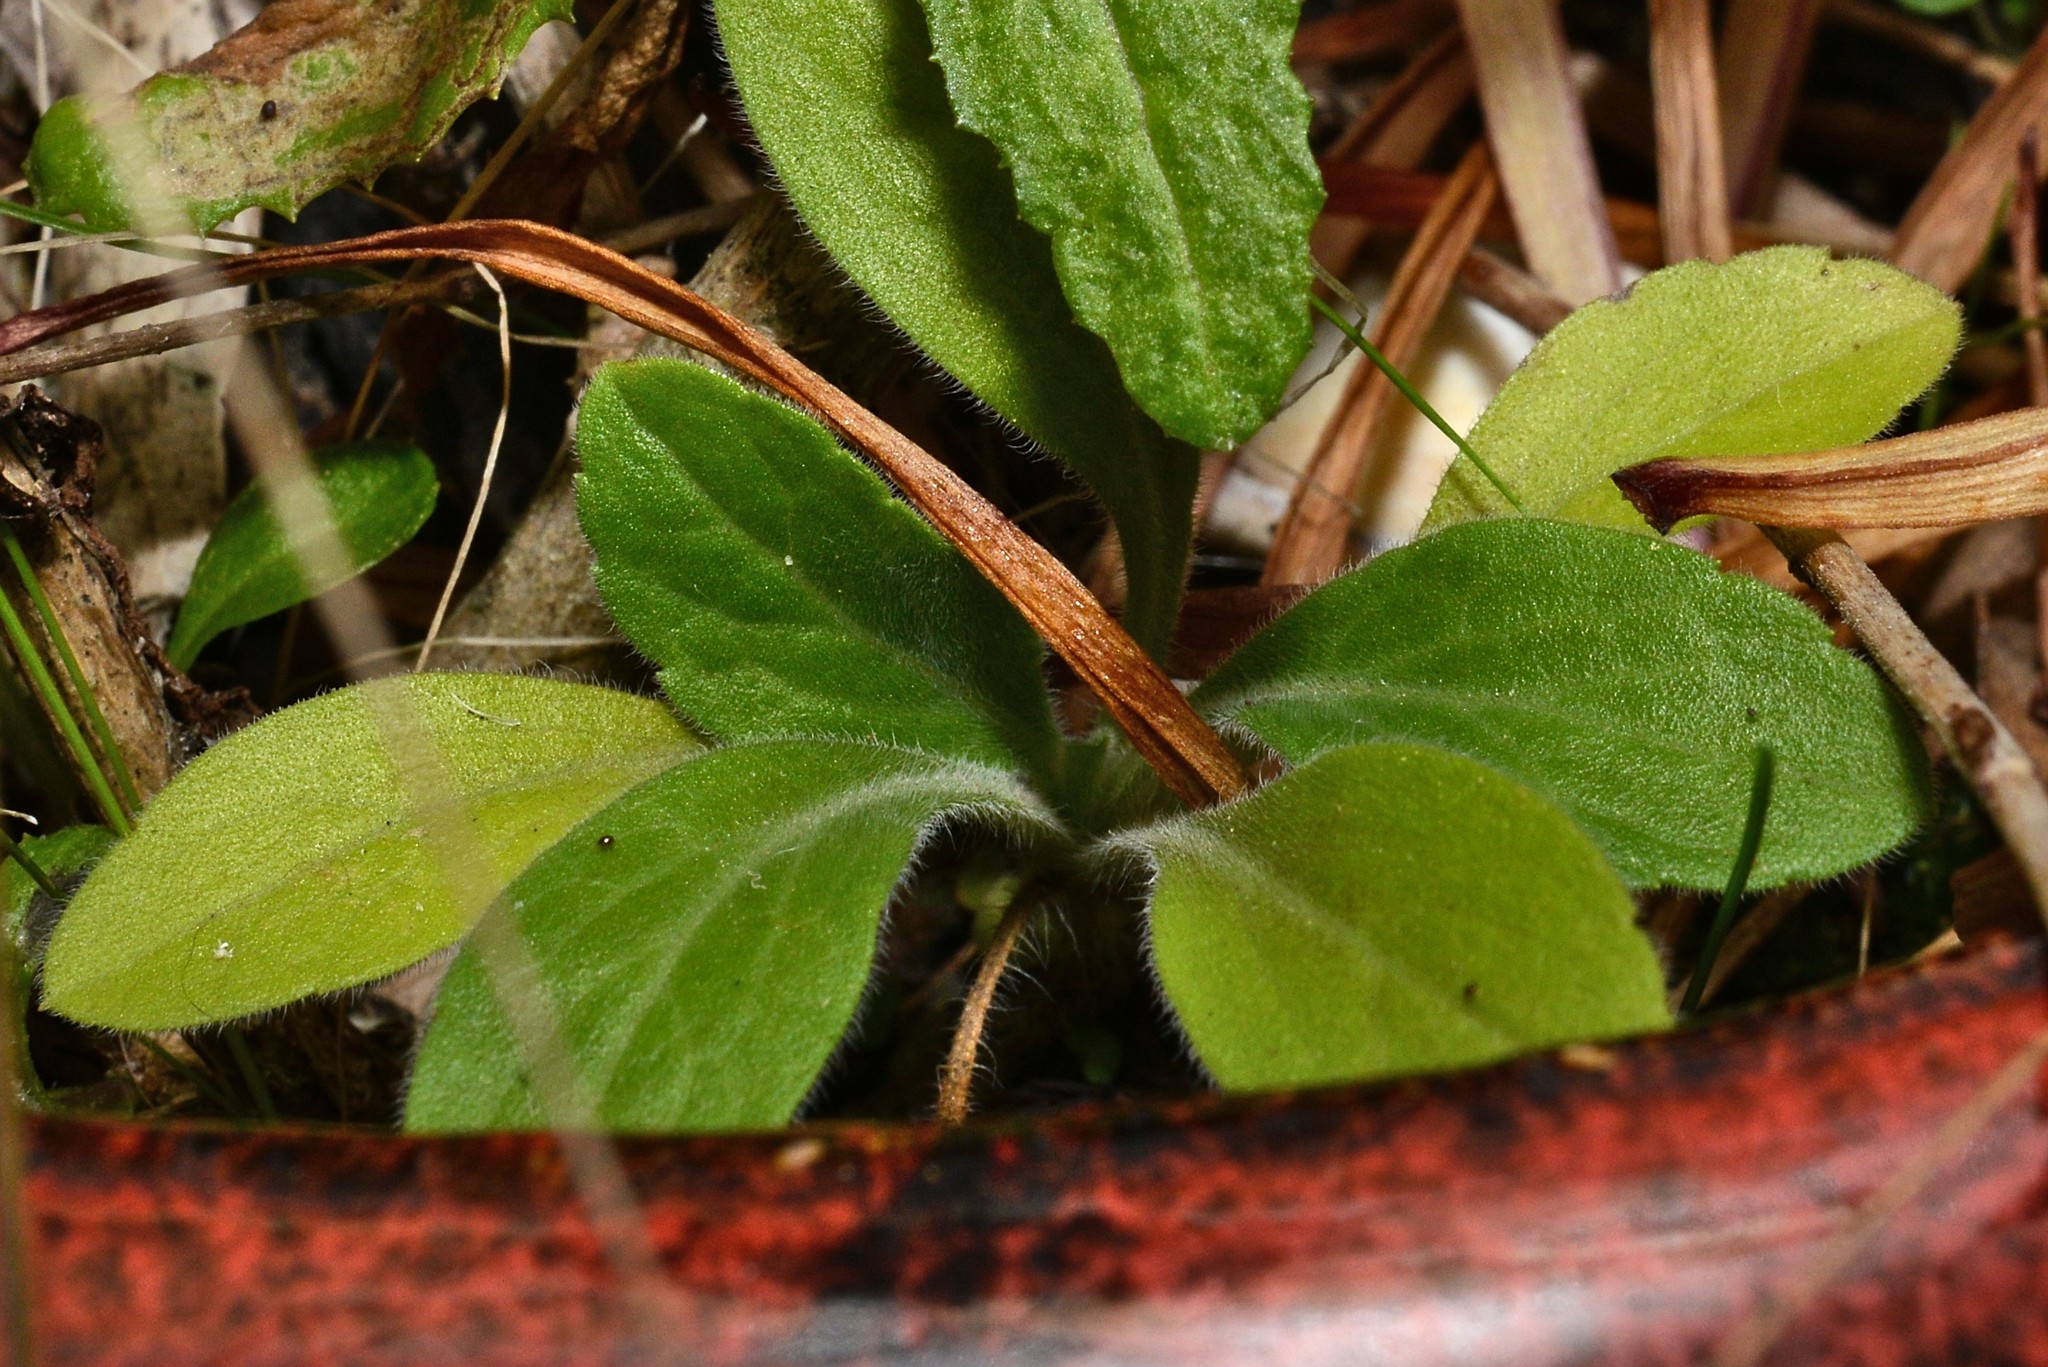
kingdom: Plantae
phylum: Tracheophyta
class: Magnoliopsida
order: Asterales
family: Asteraceae
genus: Erigeron
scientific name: Erigeron sumatrensis
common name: Daisy
